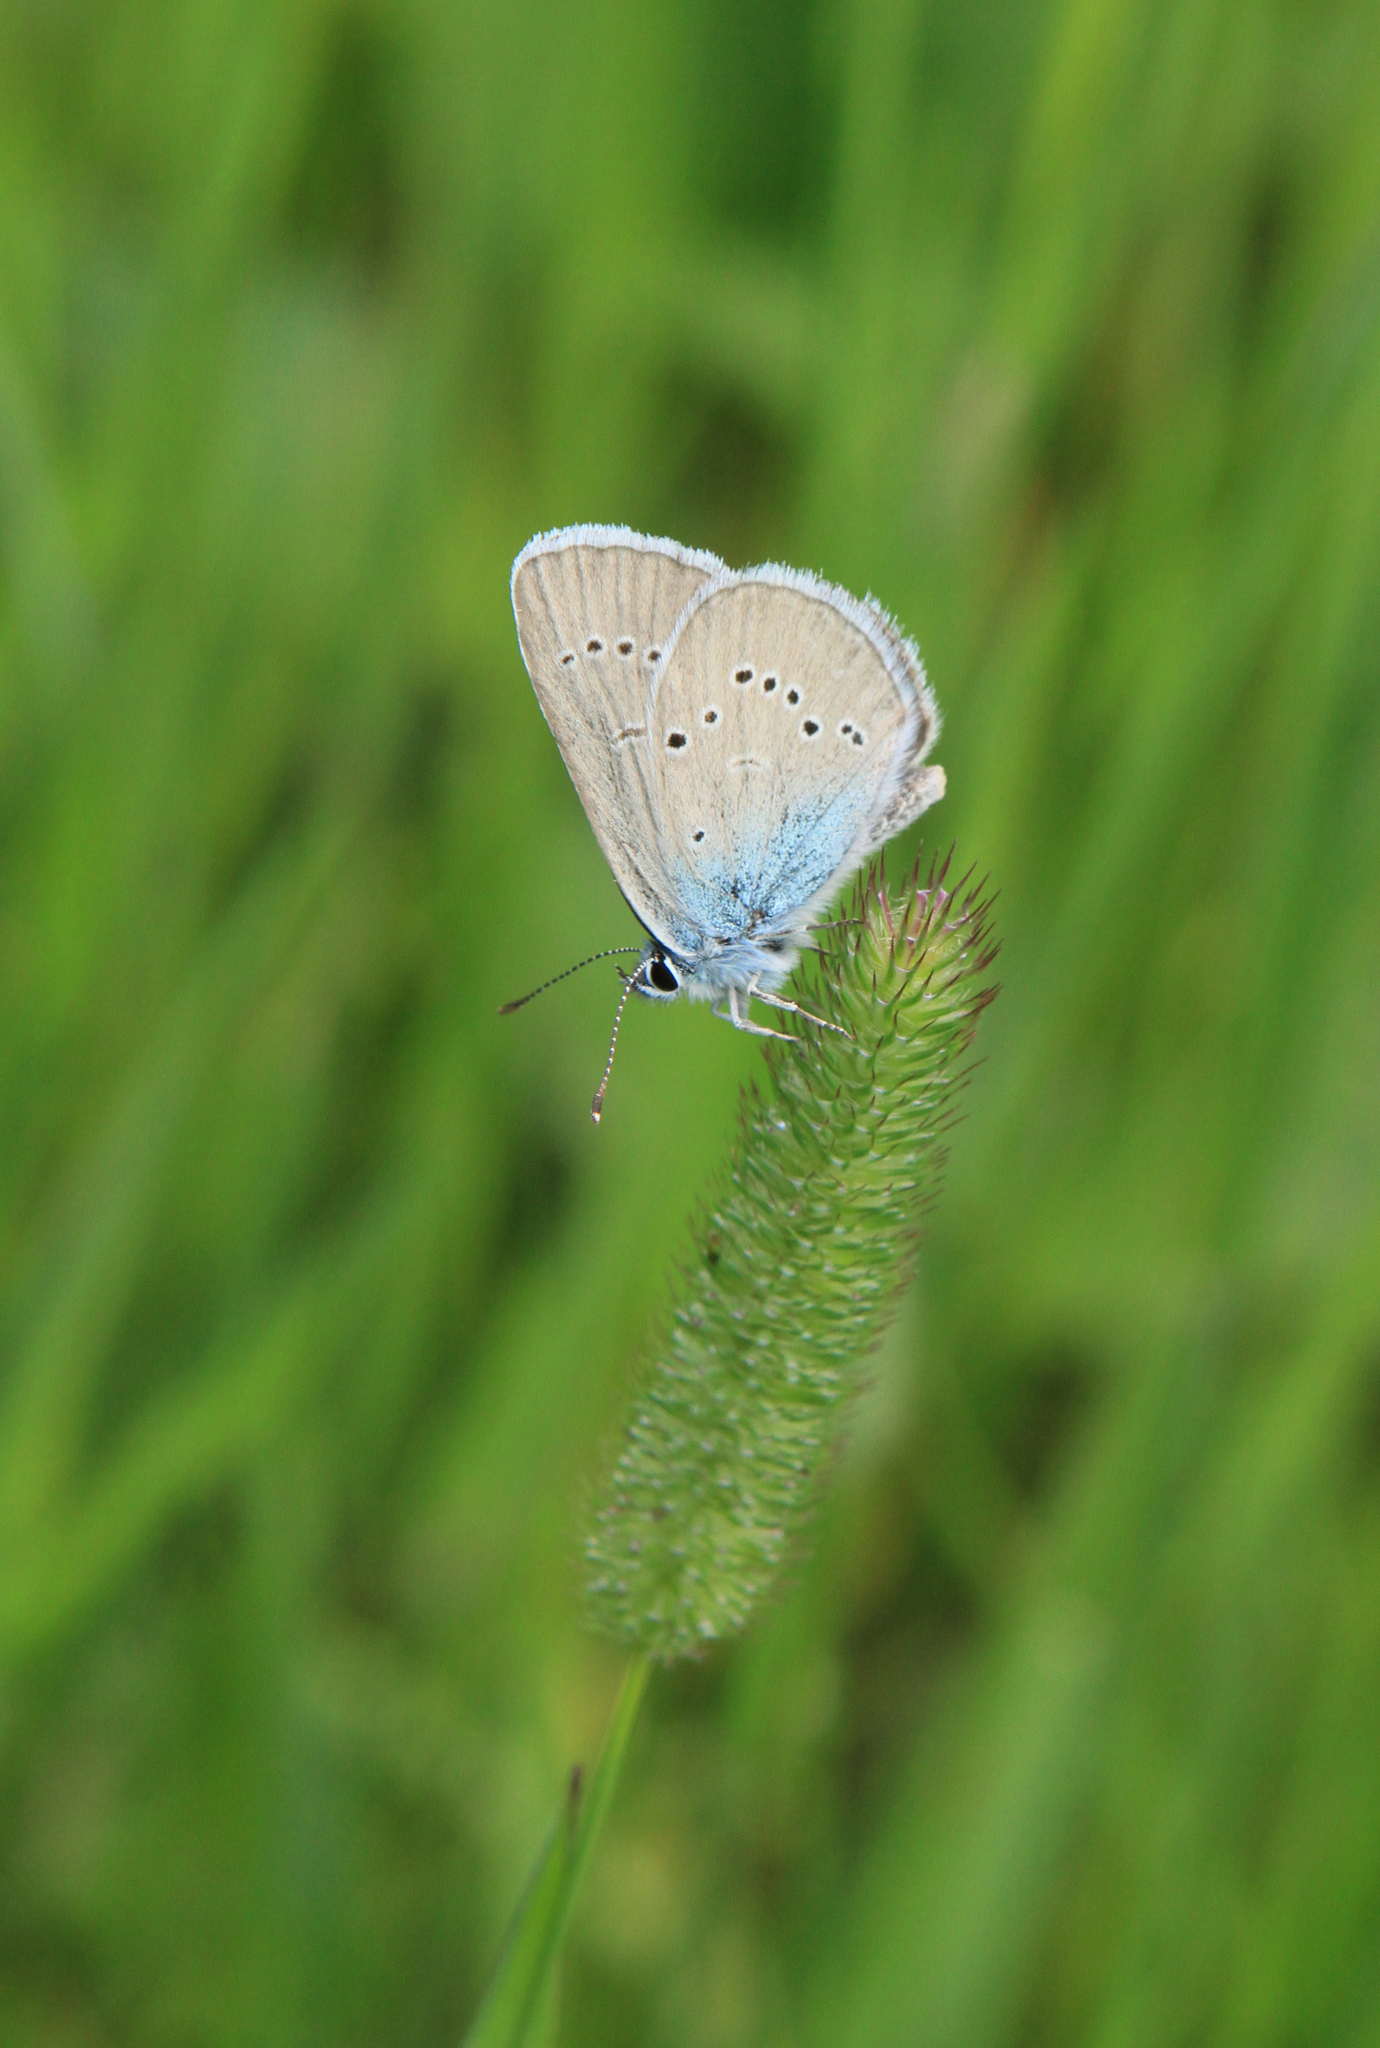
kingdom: Animalia
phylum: Arthropoda
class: Insecta
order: Lepidoptera
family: Lycaenidae
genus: Cyaniris
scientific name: Cyaniris semiargus
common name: Mazarine blue
